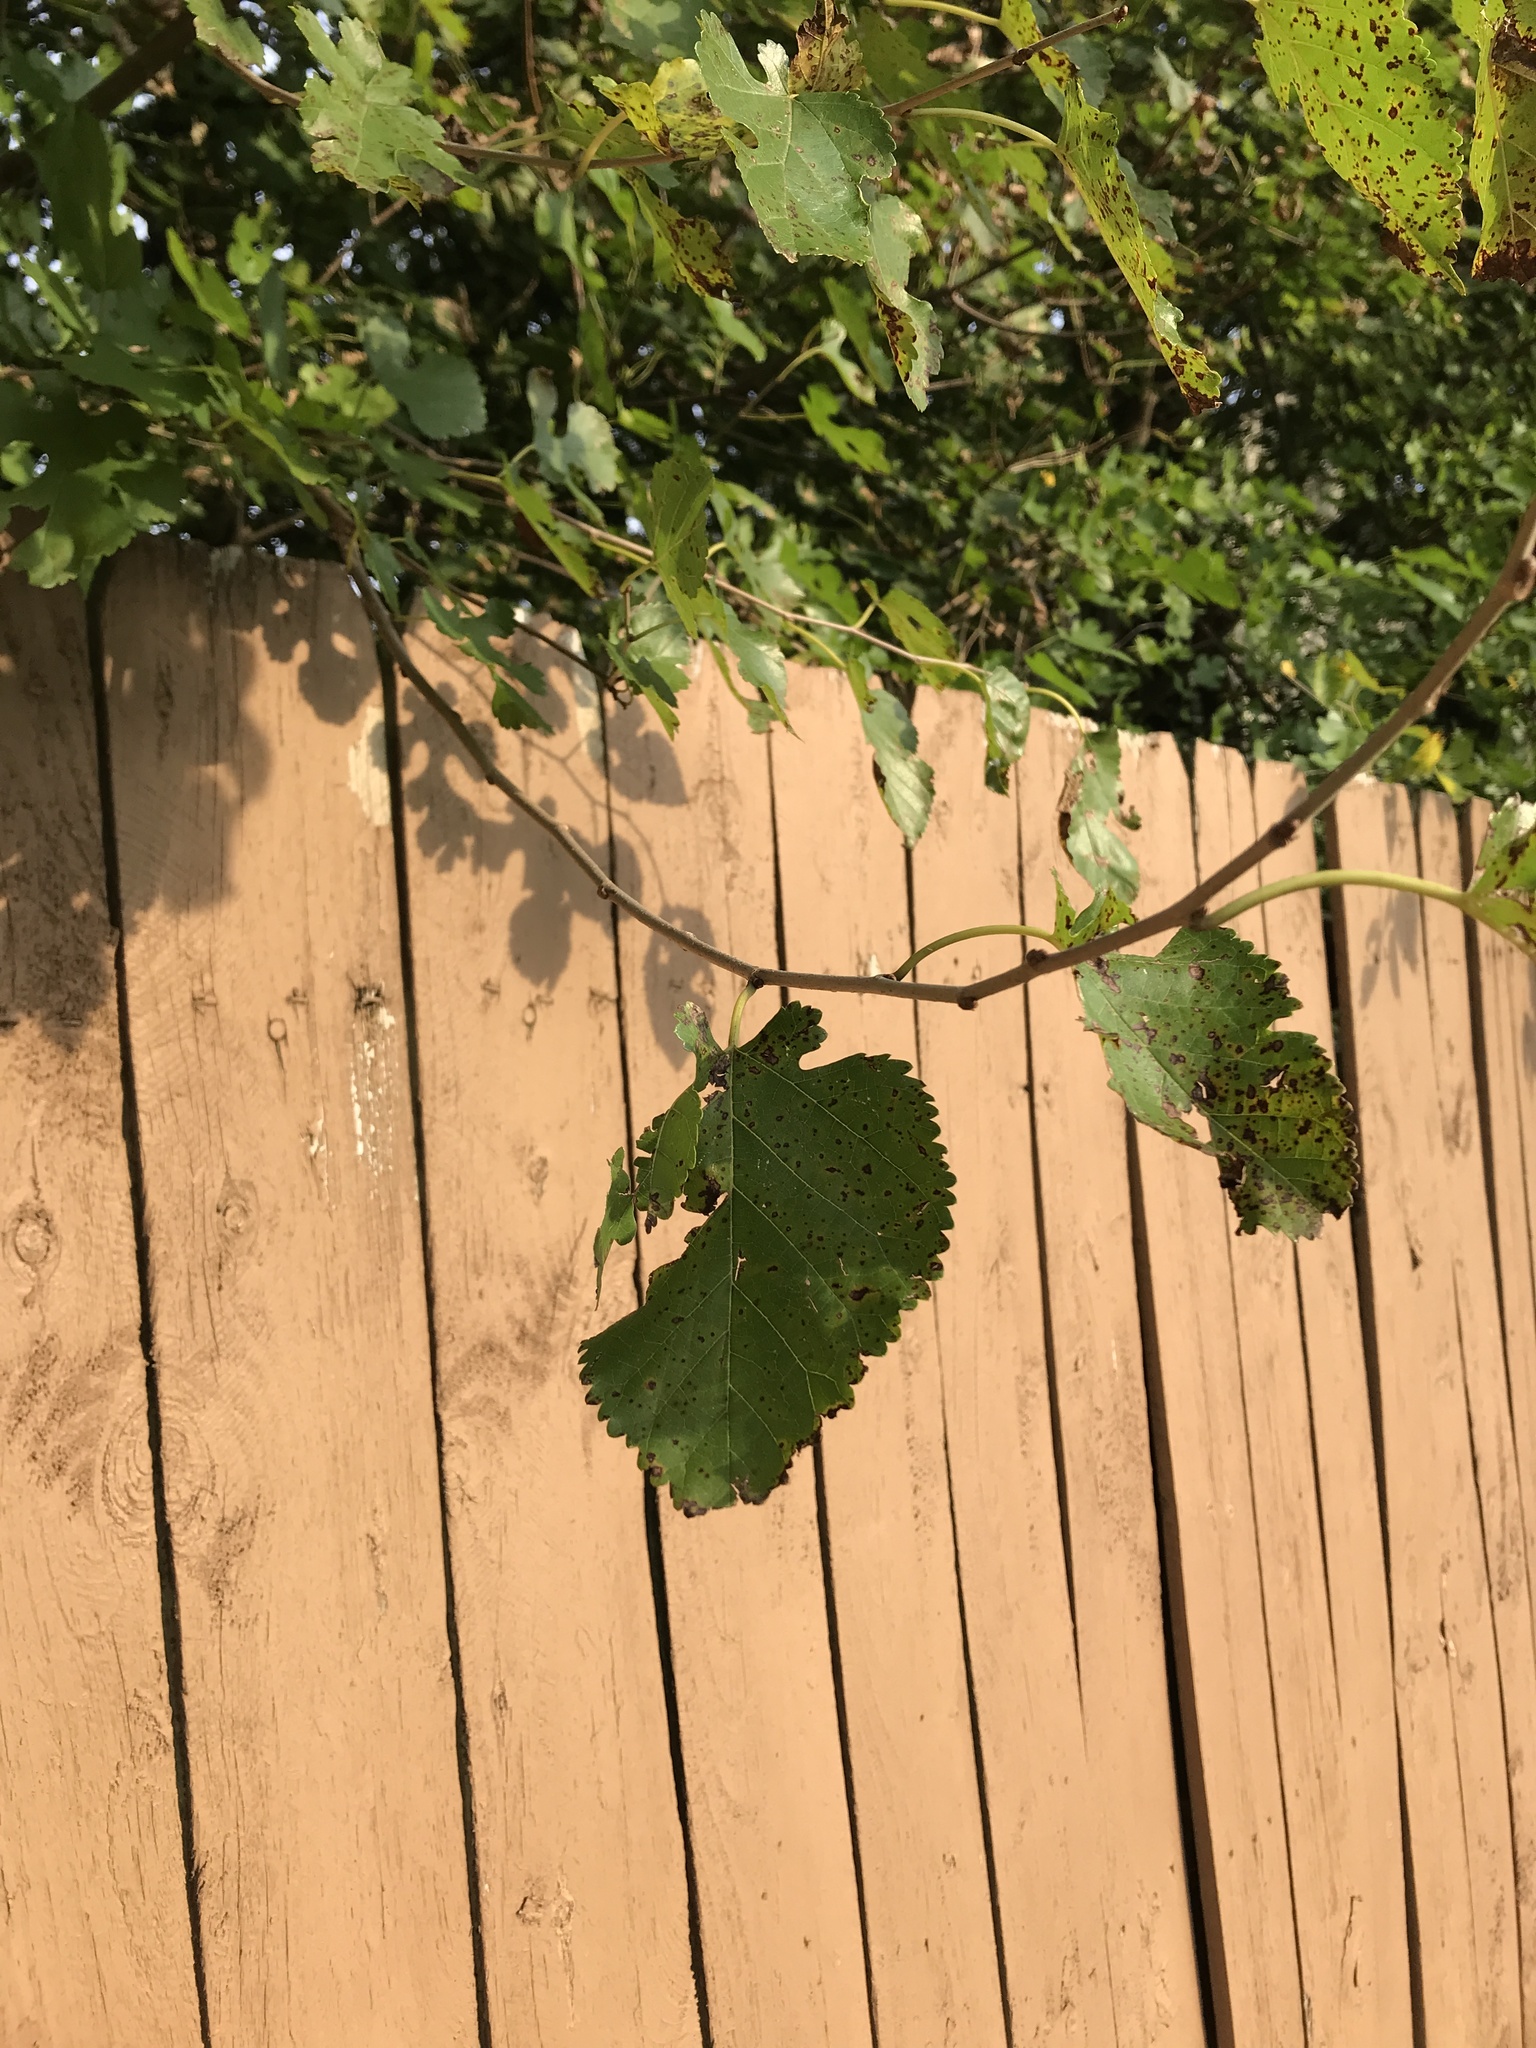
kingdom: Plantae
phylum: Tracheophyta
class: Magnoliopsida
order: Rosales
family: Moraceae
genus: Morus
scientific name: Morus alba
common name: White mulberry
